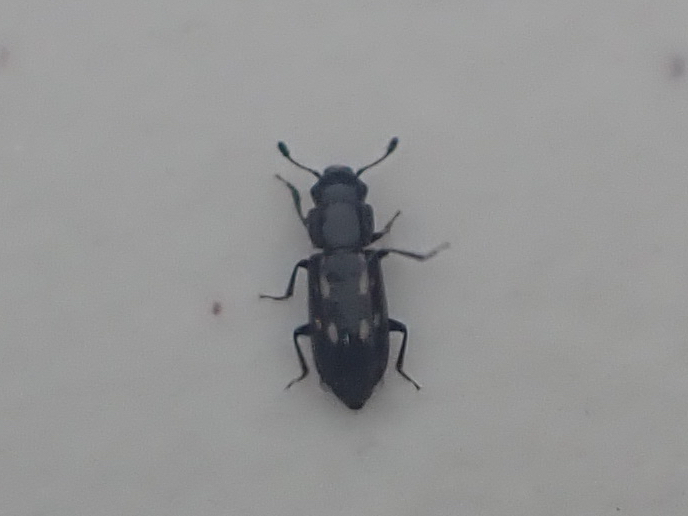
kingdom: Animalia
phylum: Arthropoda
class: Insecta
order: Coleoptera
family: Nitidulidae
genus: Glischrochilus
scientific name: Glischrochilus vittatus
